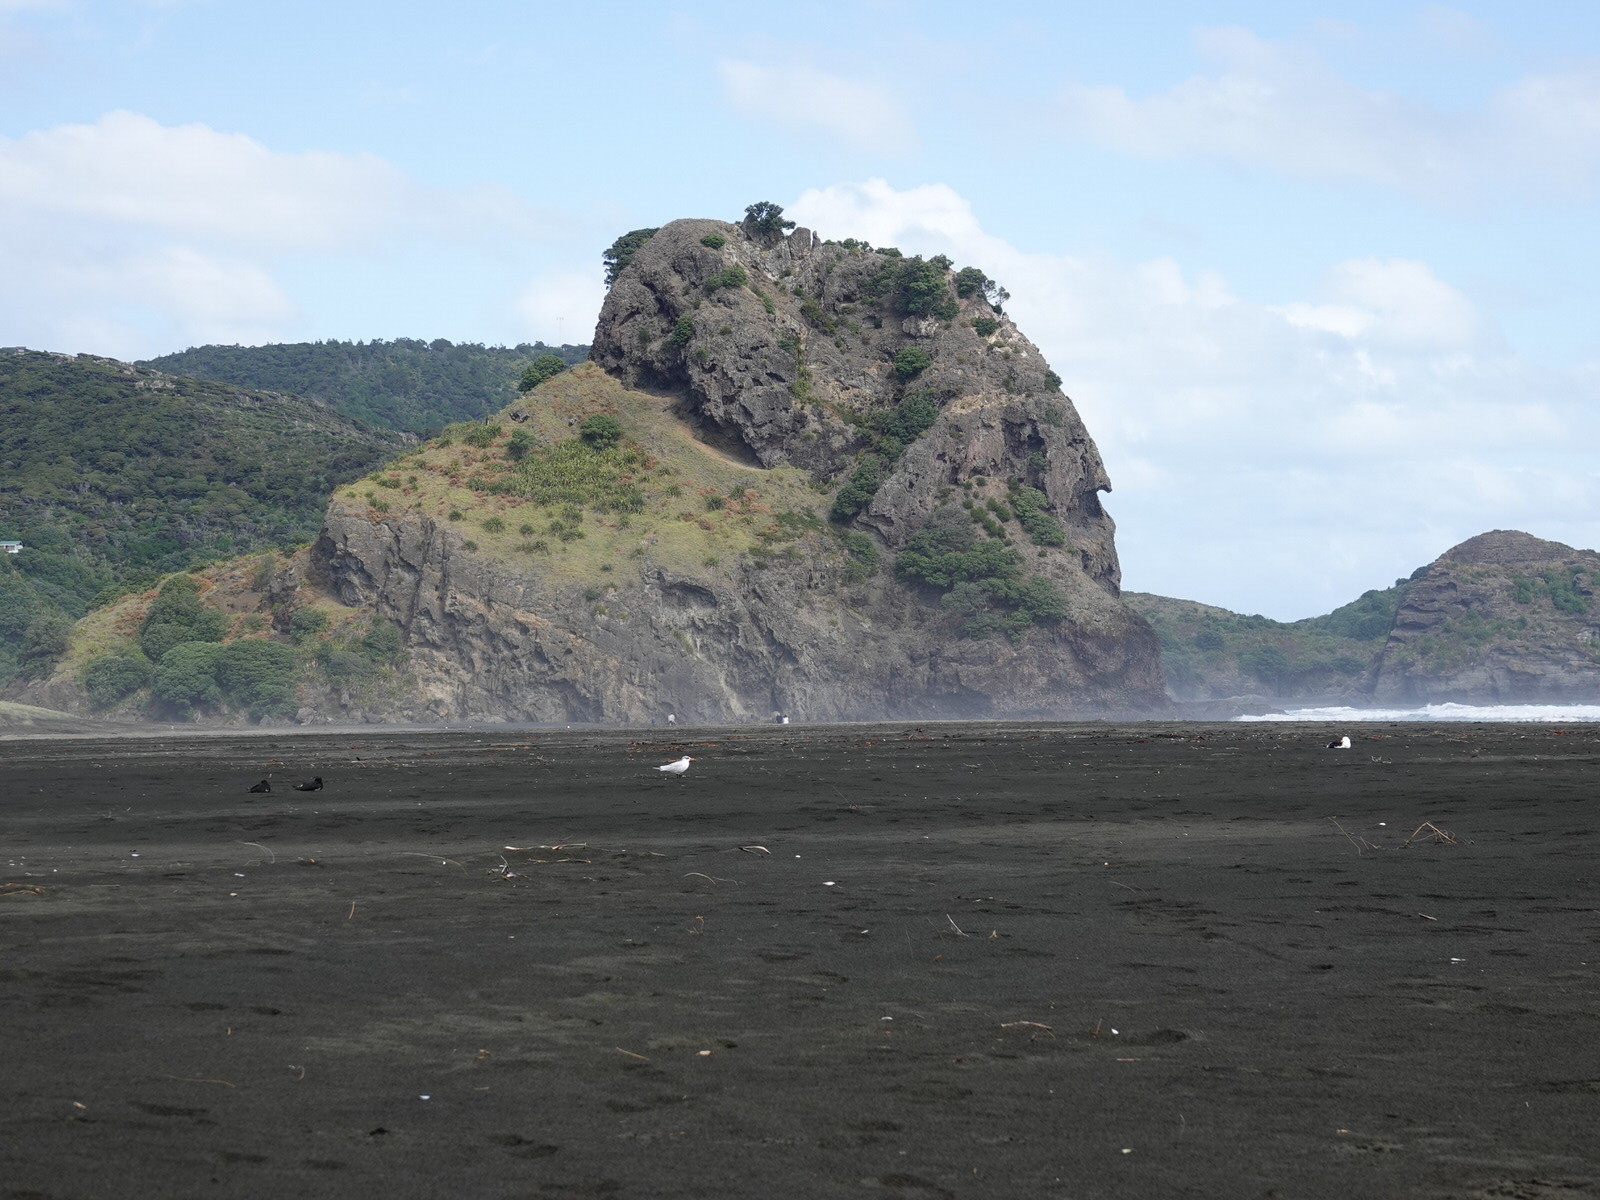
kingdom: Animalia
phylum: Chordata
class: Aves
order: Charadriiformes
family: Laridae
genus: Hydroprogne
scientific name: Hydroprogne caspia
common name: Caspian tern
